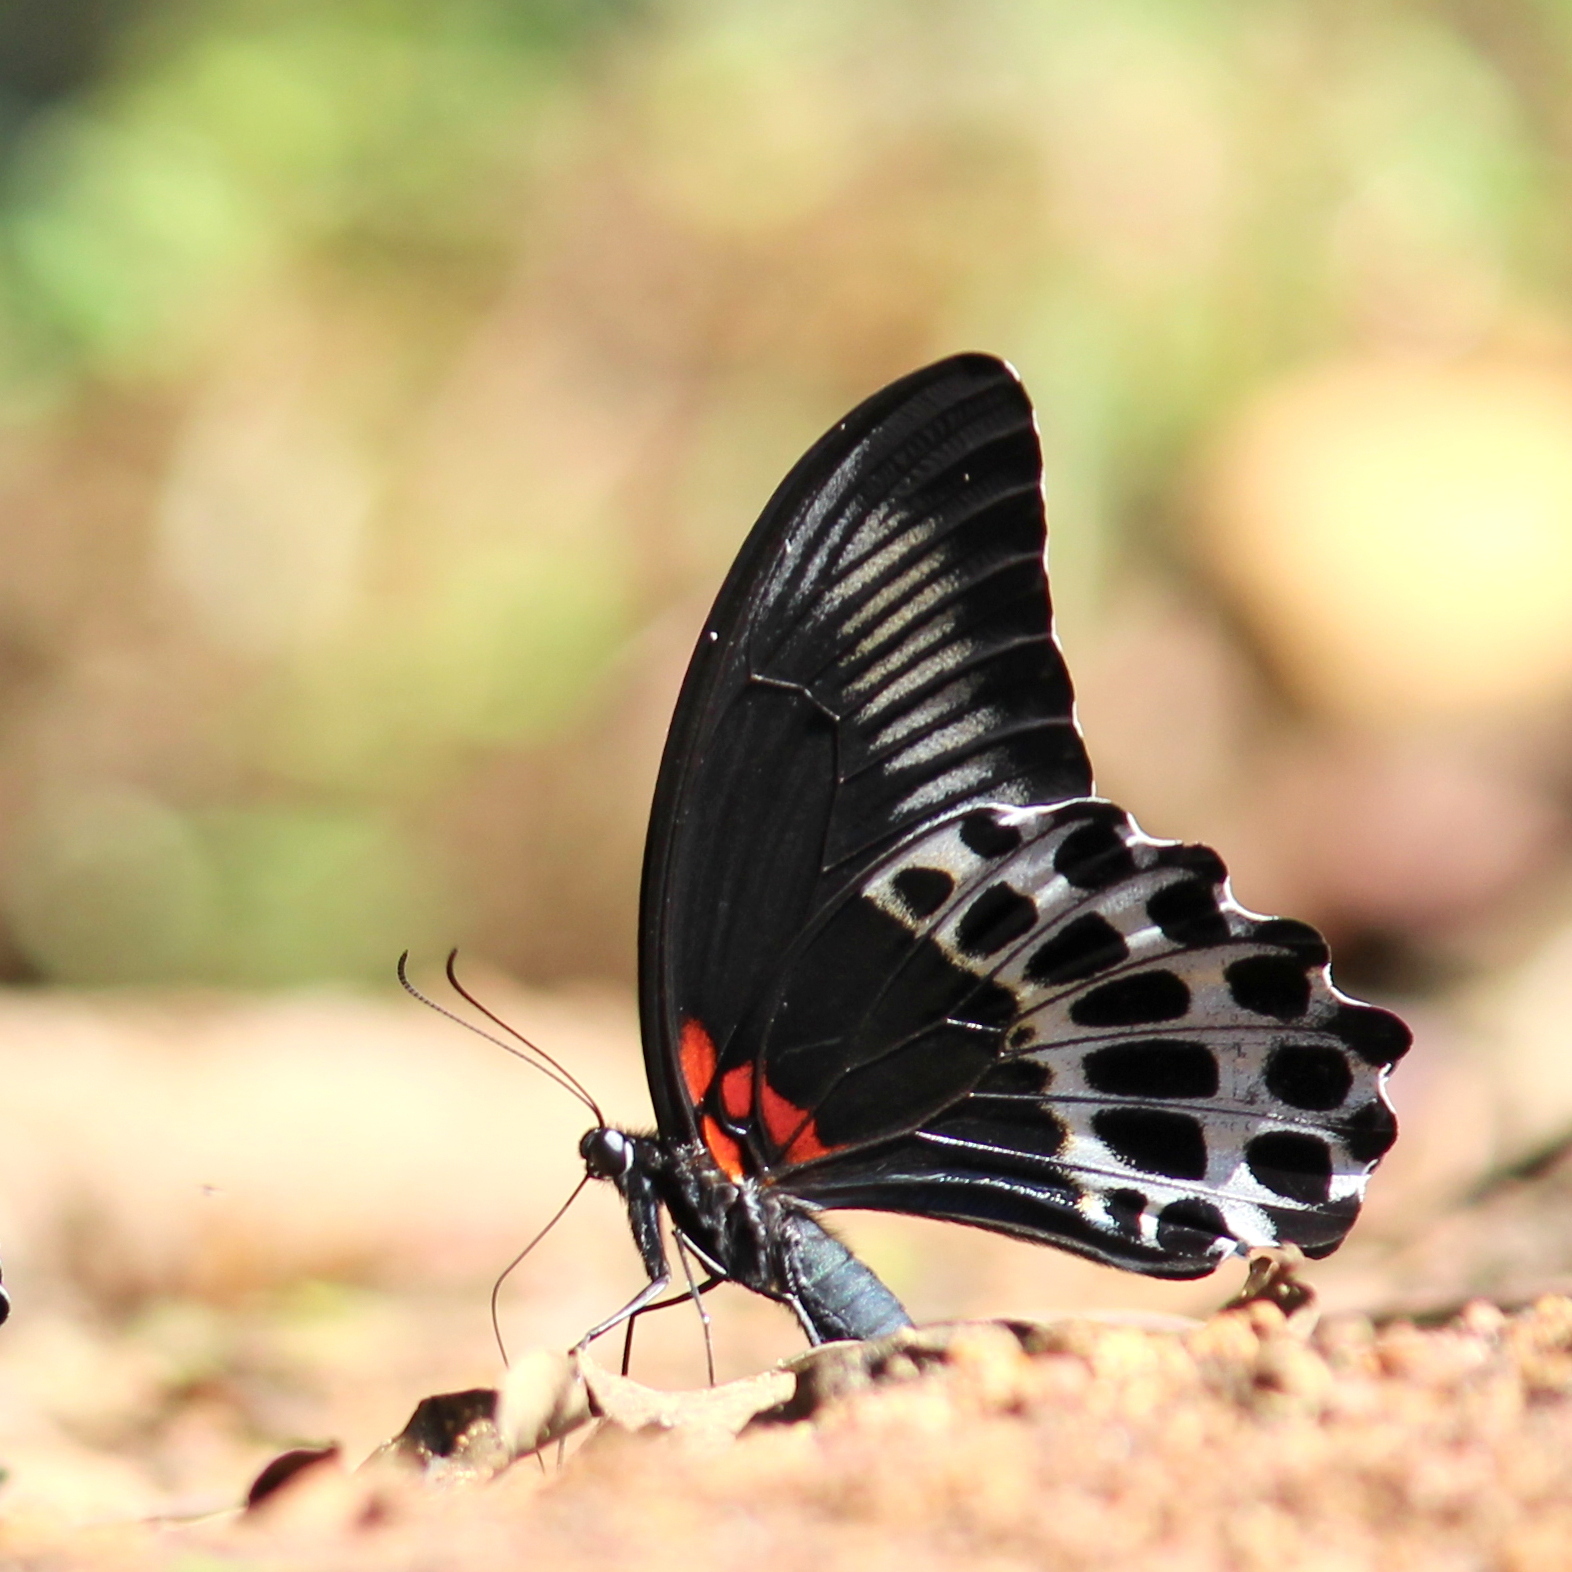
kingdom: Animalia
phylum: Arthropoda
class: Insecta
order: Lepidoptera
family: Papilionidae
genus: Papilio
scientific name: Papilio memnon
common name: Great mormon
